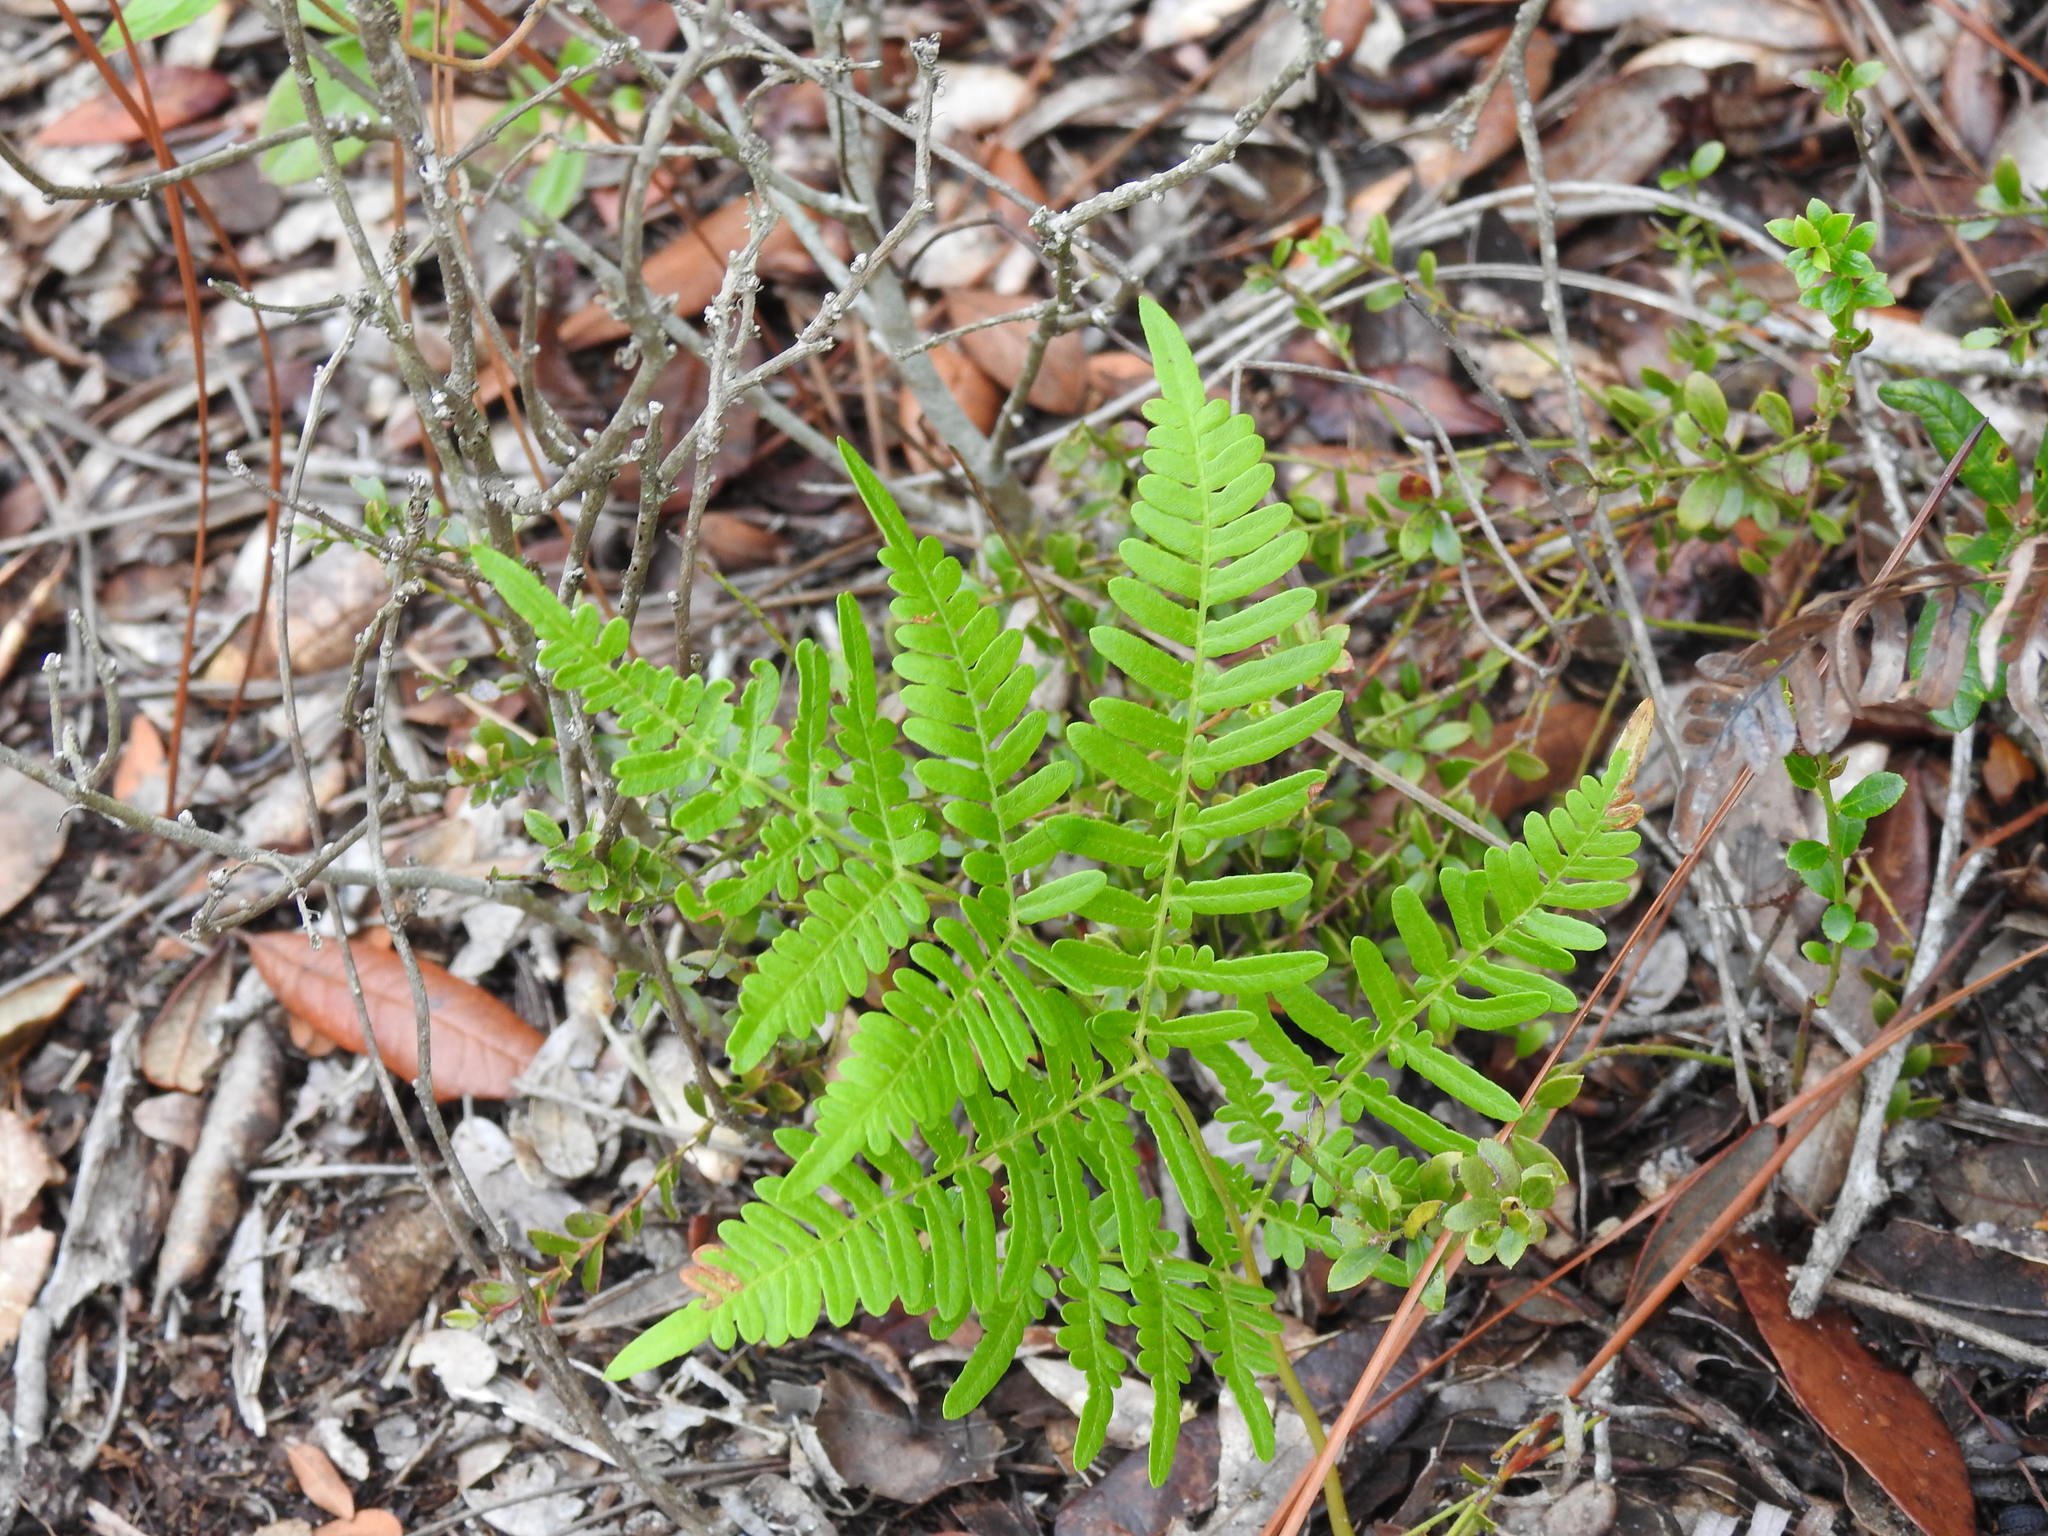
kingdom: Plantae
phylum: Tracheophyta
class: Polypodiopsida
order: Polypodiales
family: Dennstaedtiaceae
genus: Pteridium
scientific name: Pteridium
